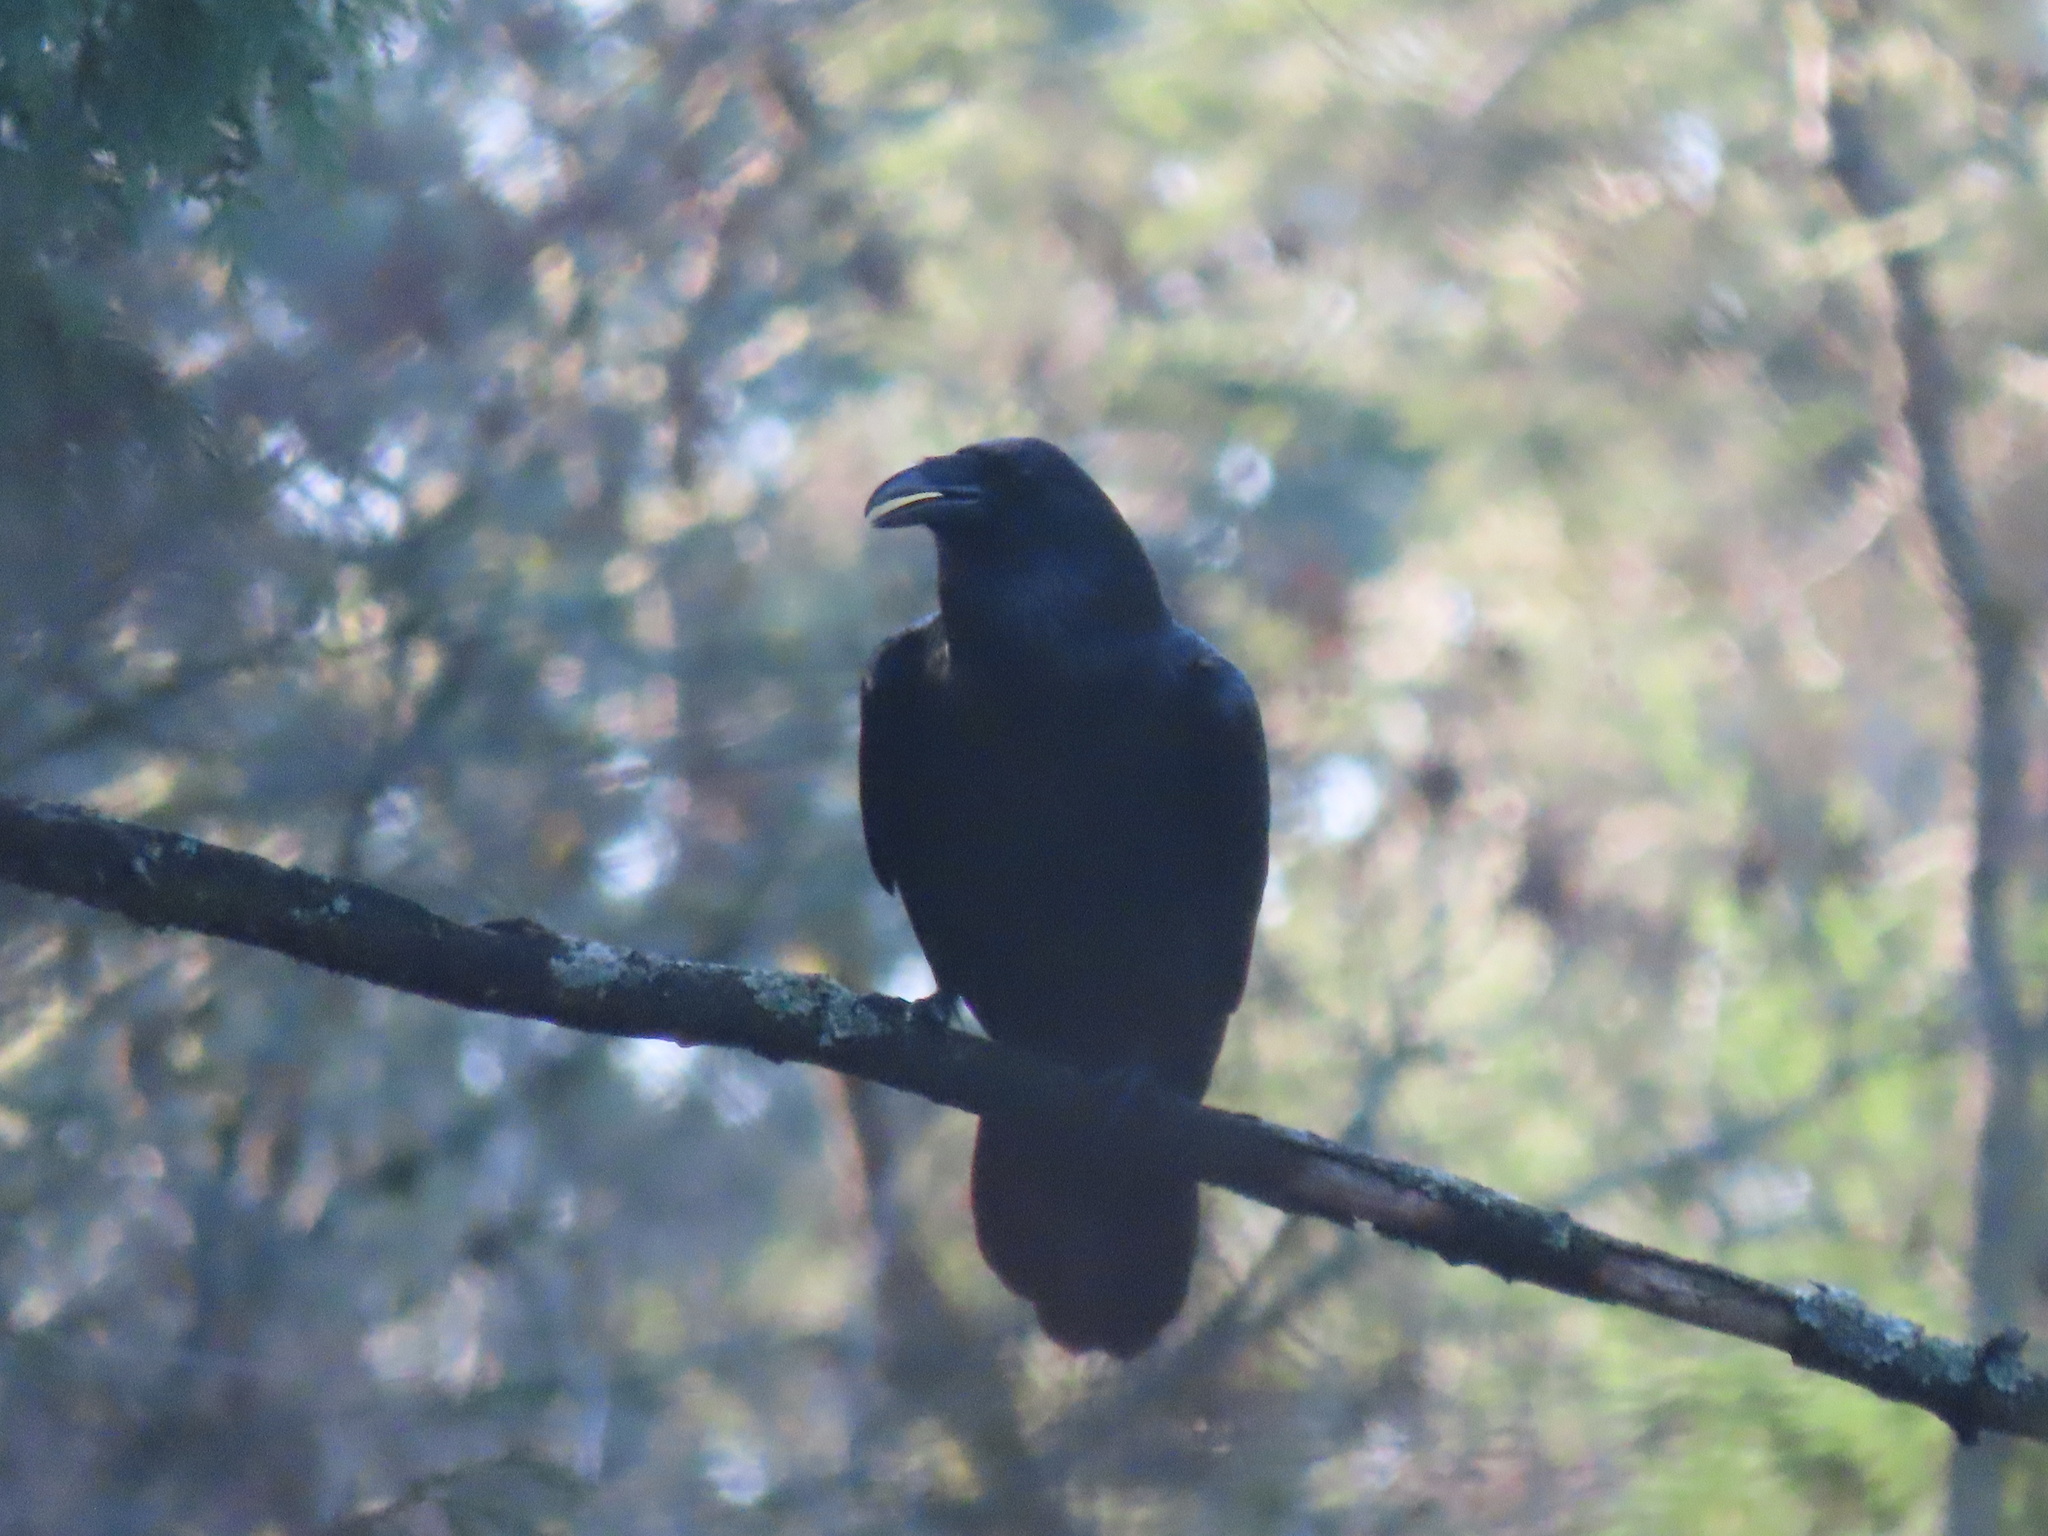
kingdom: Animalia
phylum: Chordata
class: Aves
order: Passeriformes
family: Corvidae
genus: Corvus
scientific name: Corvus corax
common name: Common raven
